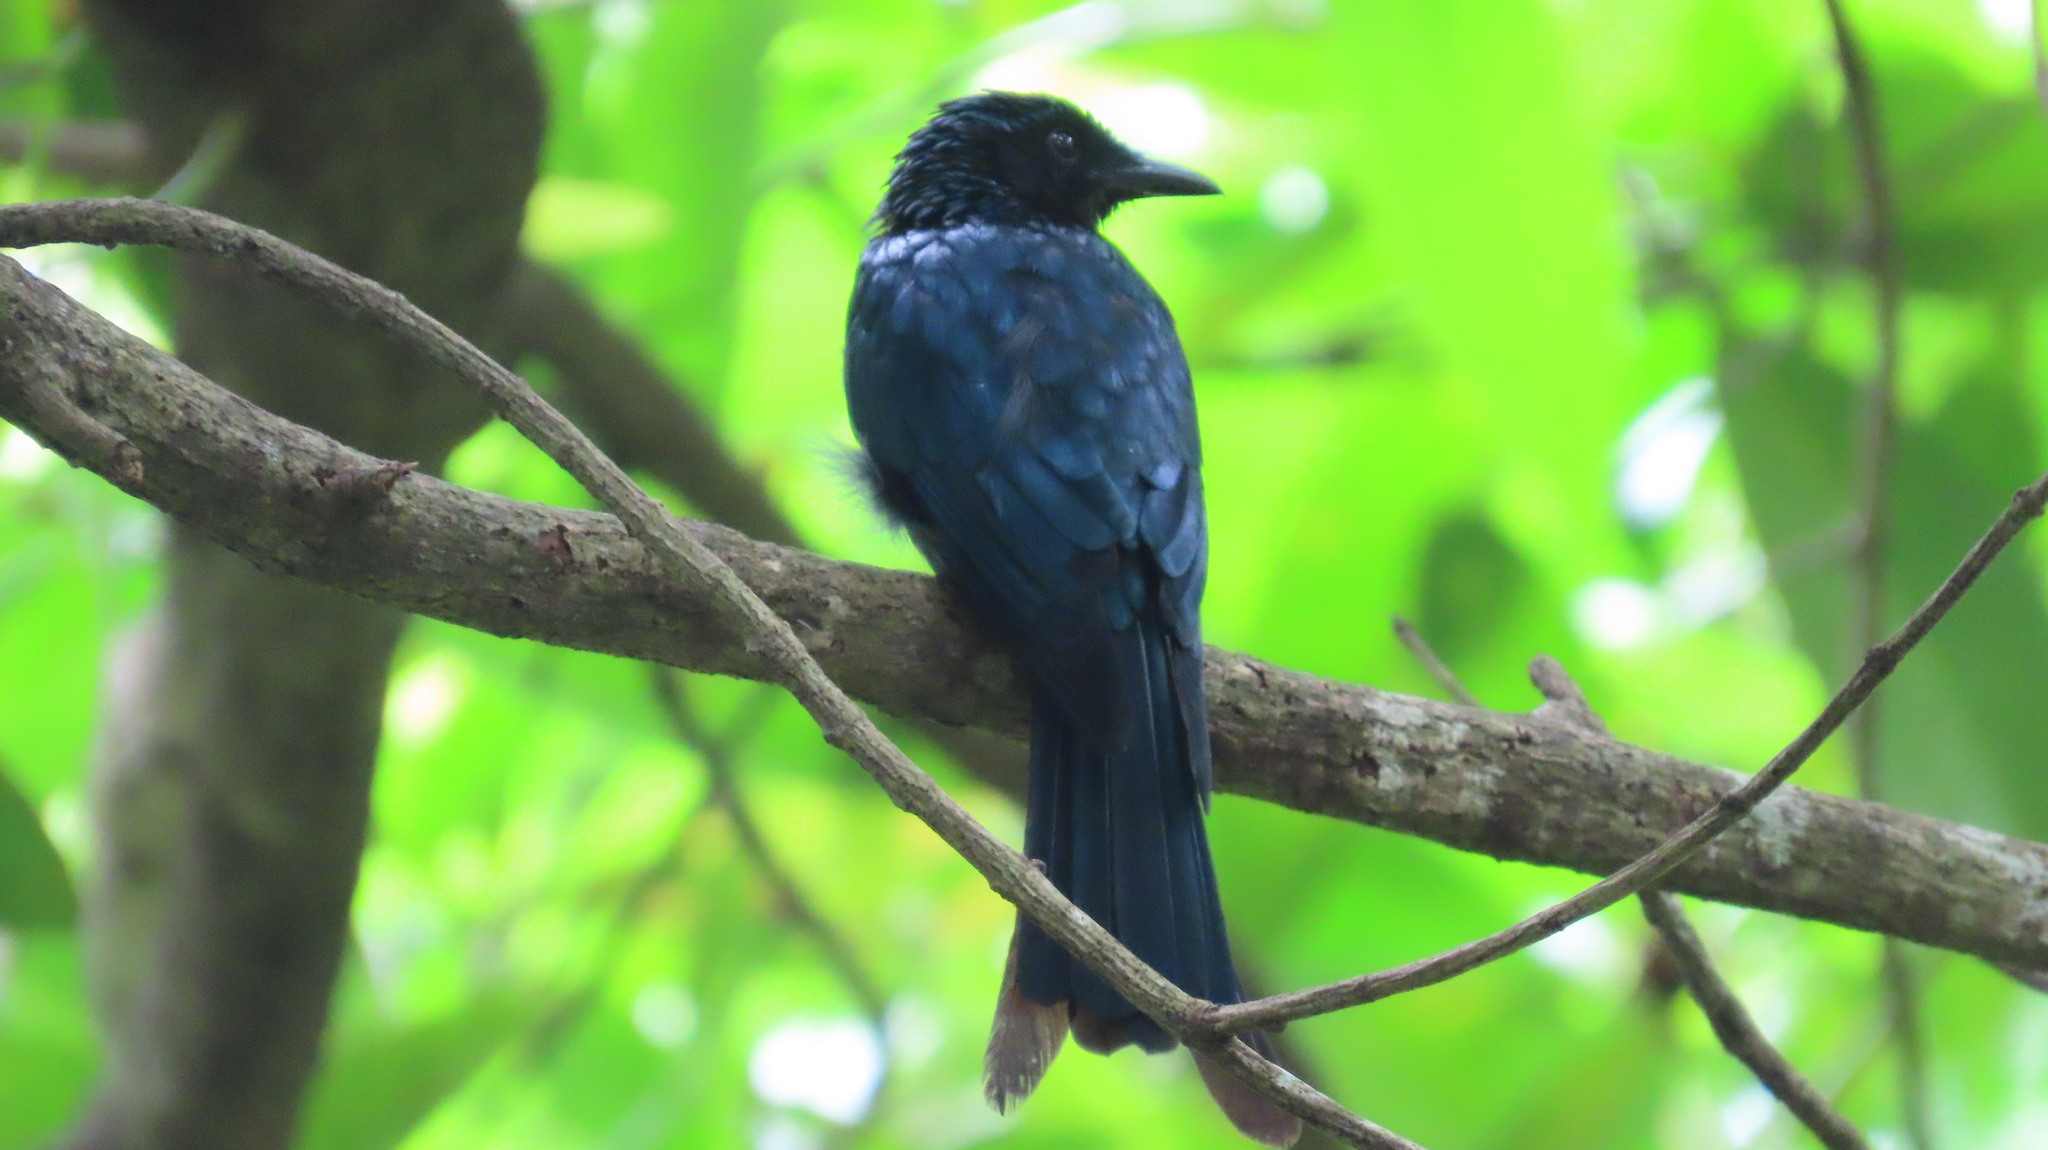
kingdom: Animalia
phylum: Chordata
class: Aves
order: Passeriformes
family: Dicruridae
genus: Dicrurus
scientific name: Dicrurus aeneus
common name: Bronzed drongo
